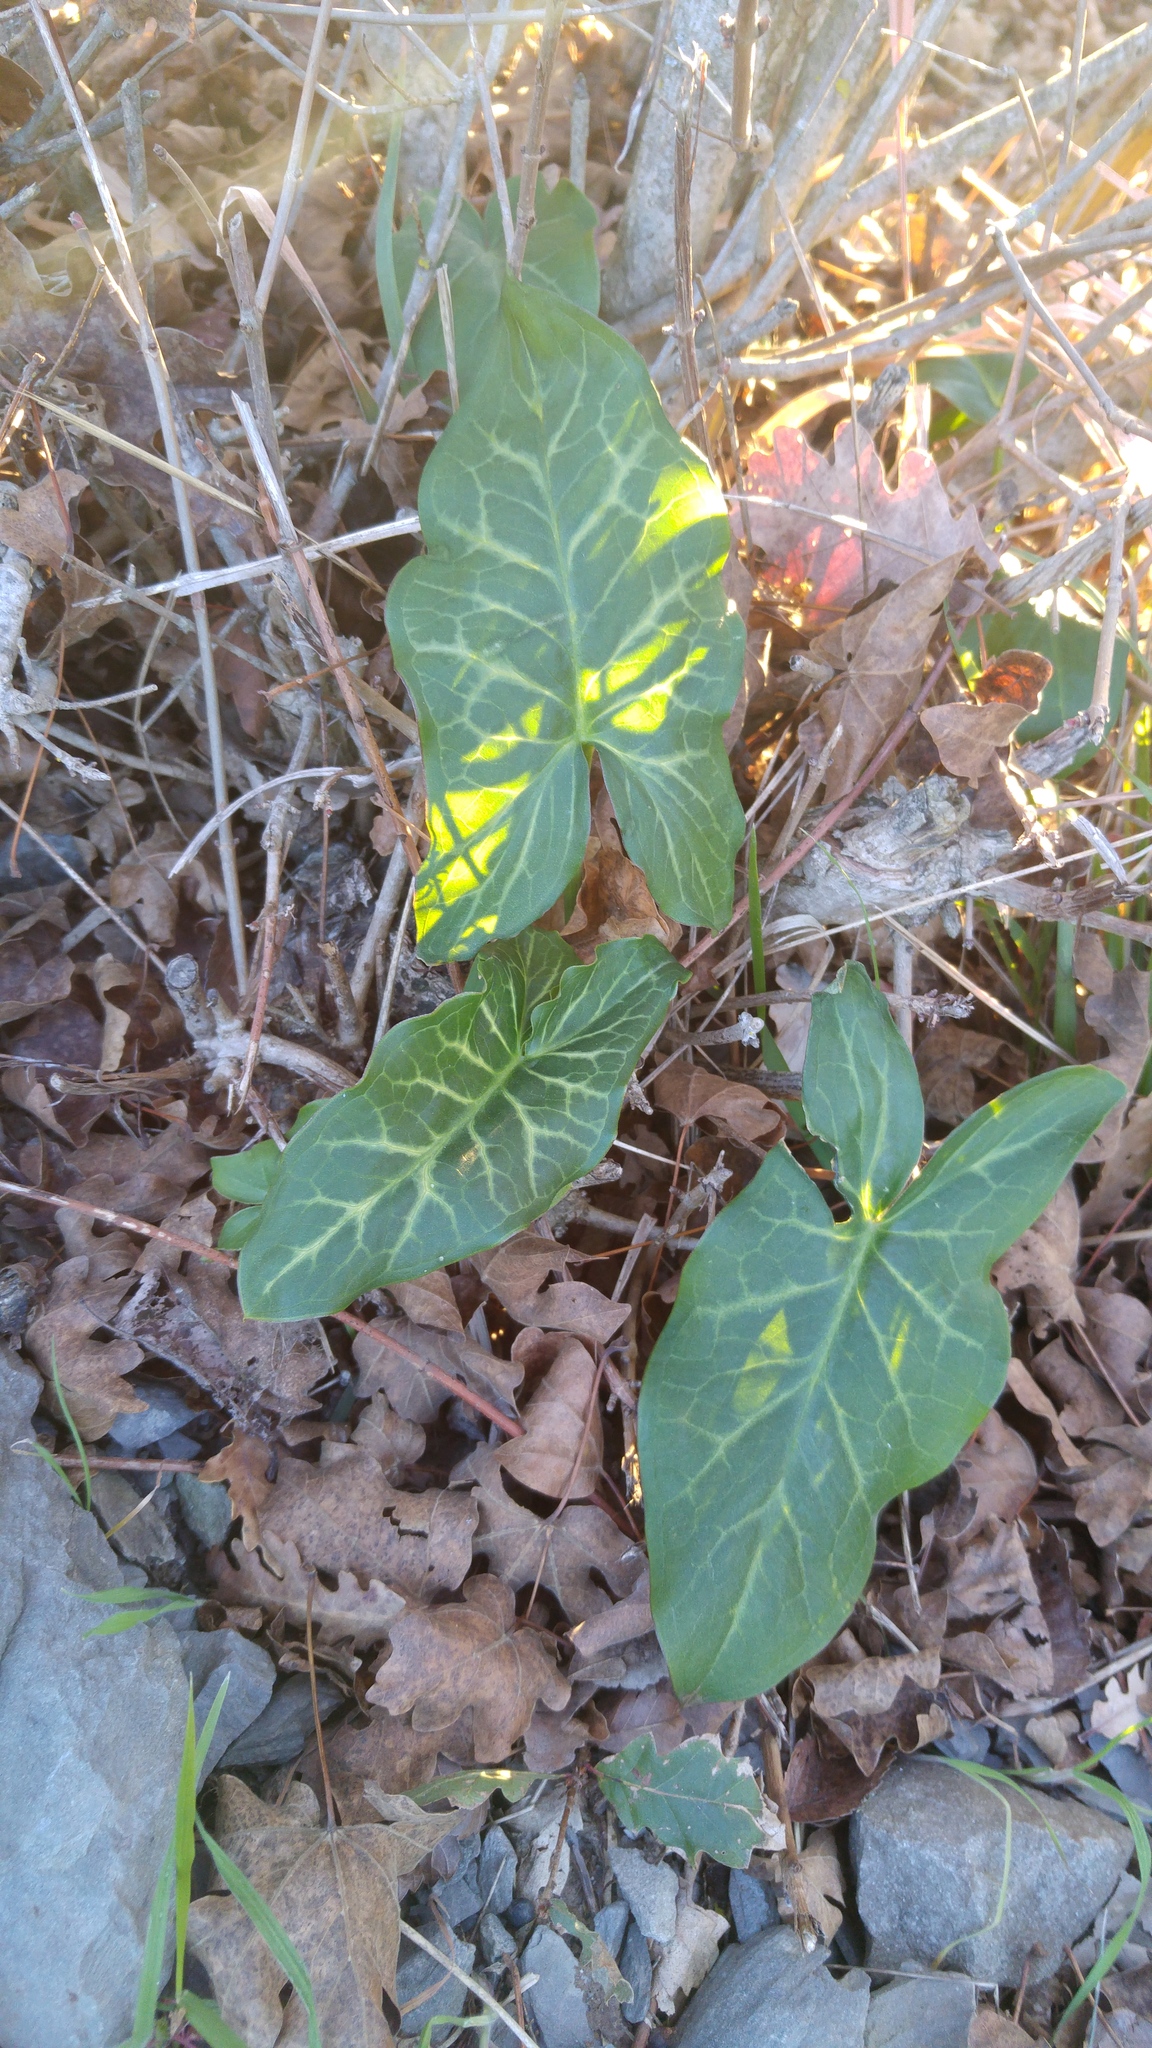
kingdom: Plantae
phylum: Tracheophyta
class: Liliopsida
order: Alismatales
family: Araceae
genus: Arum
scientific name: Arum italicum
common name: Italian lords-and-ladies
